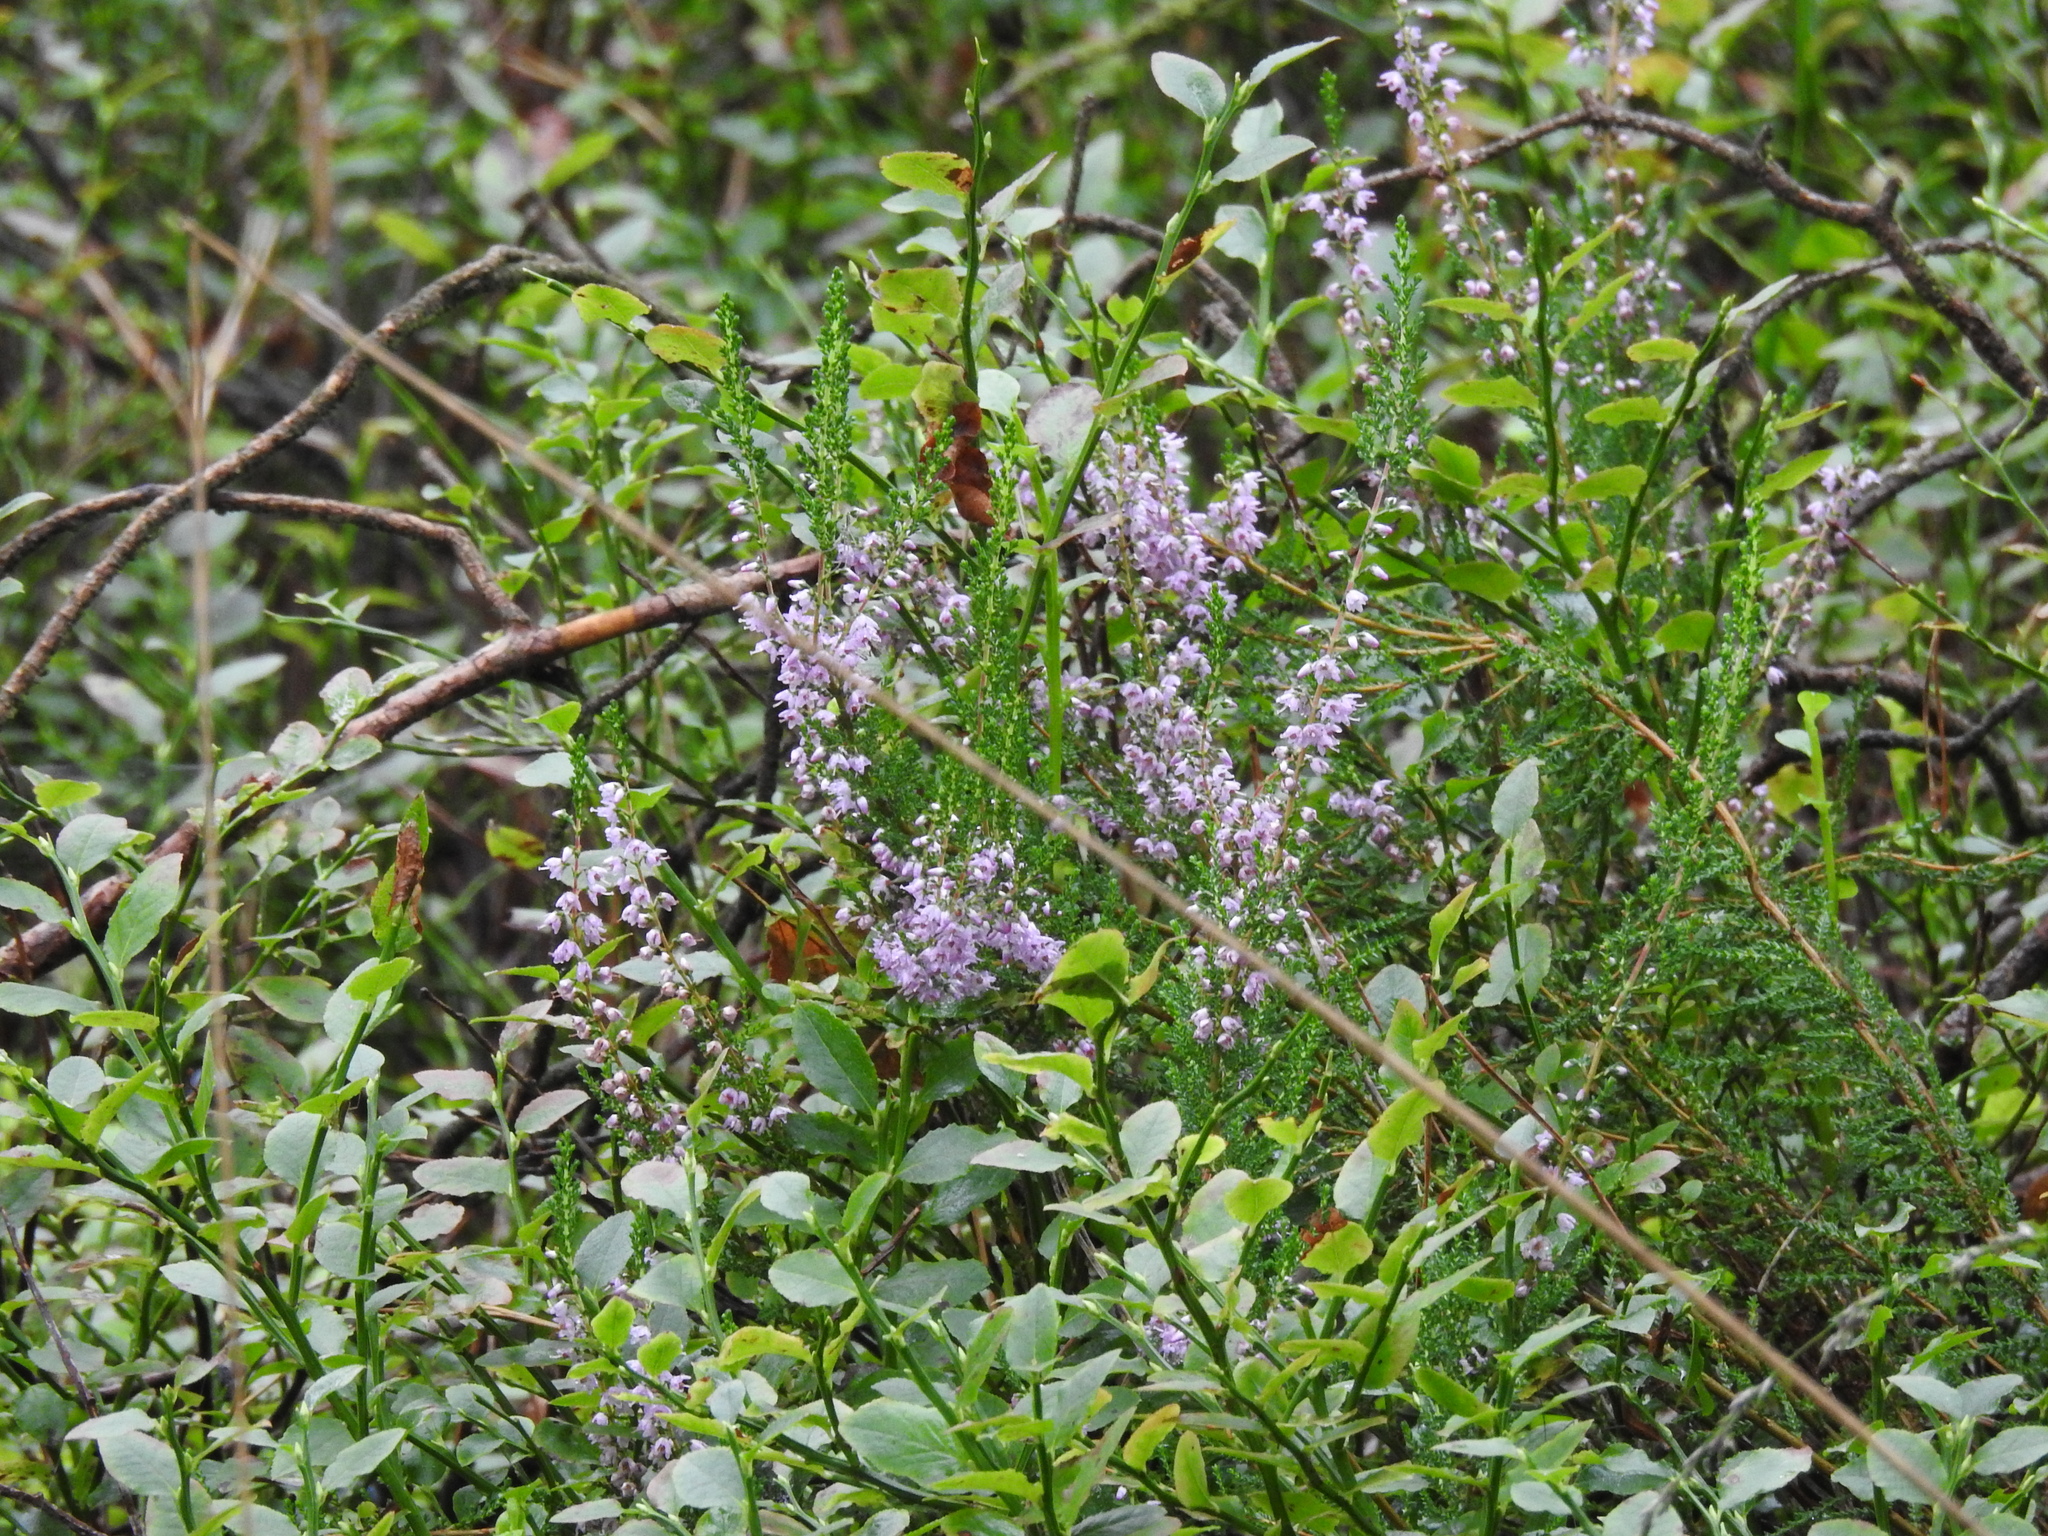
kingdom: Plantae
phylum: Tracheophyta
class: Magnoliopsida
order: Ericales
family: Ericaceae
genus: Calluna
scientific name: Calluna vulgaris
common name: Heather
